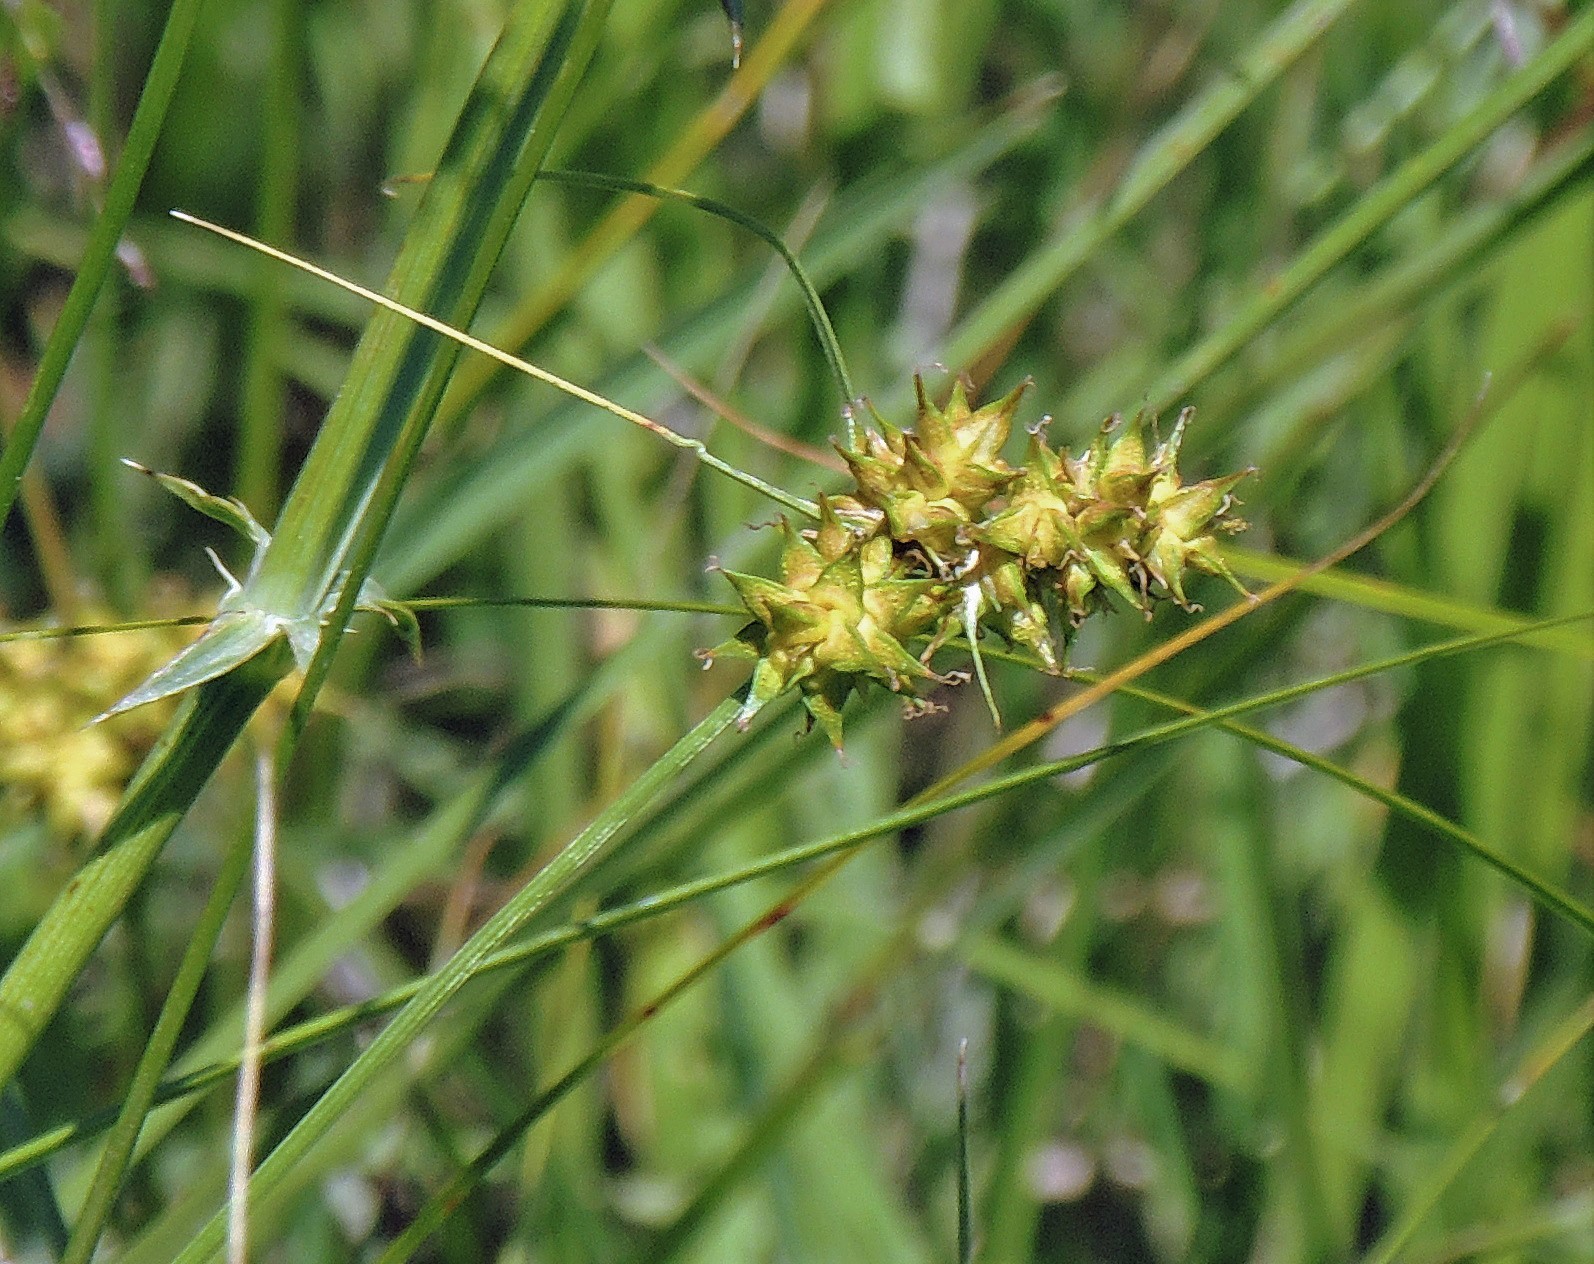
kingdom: Plantae
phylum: Tracheophyta
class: Liliopsida
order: Poales
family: Cyperaceae
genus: Carex
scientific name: Carex bonariensis
